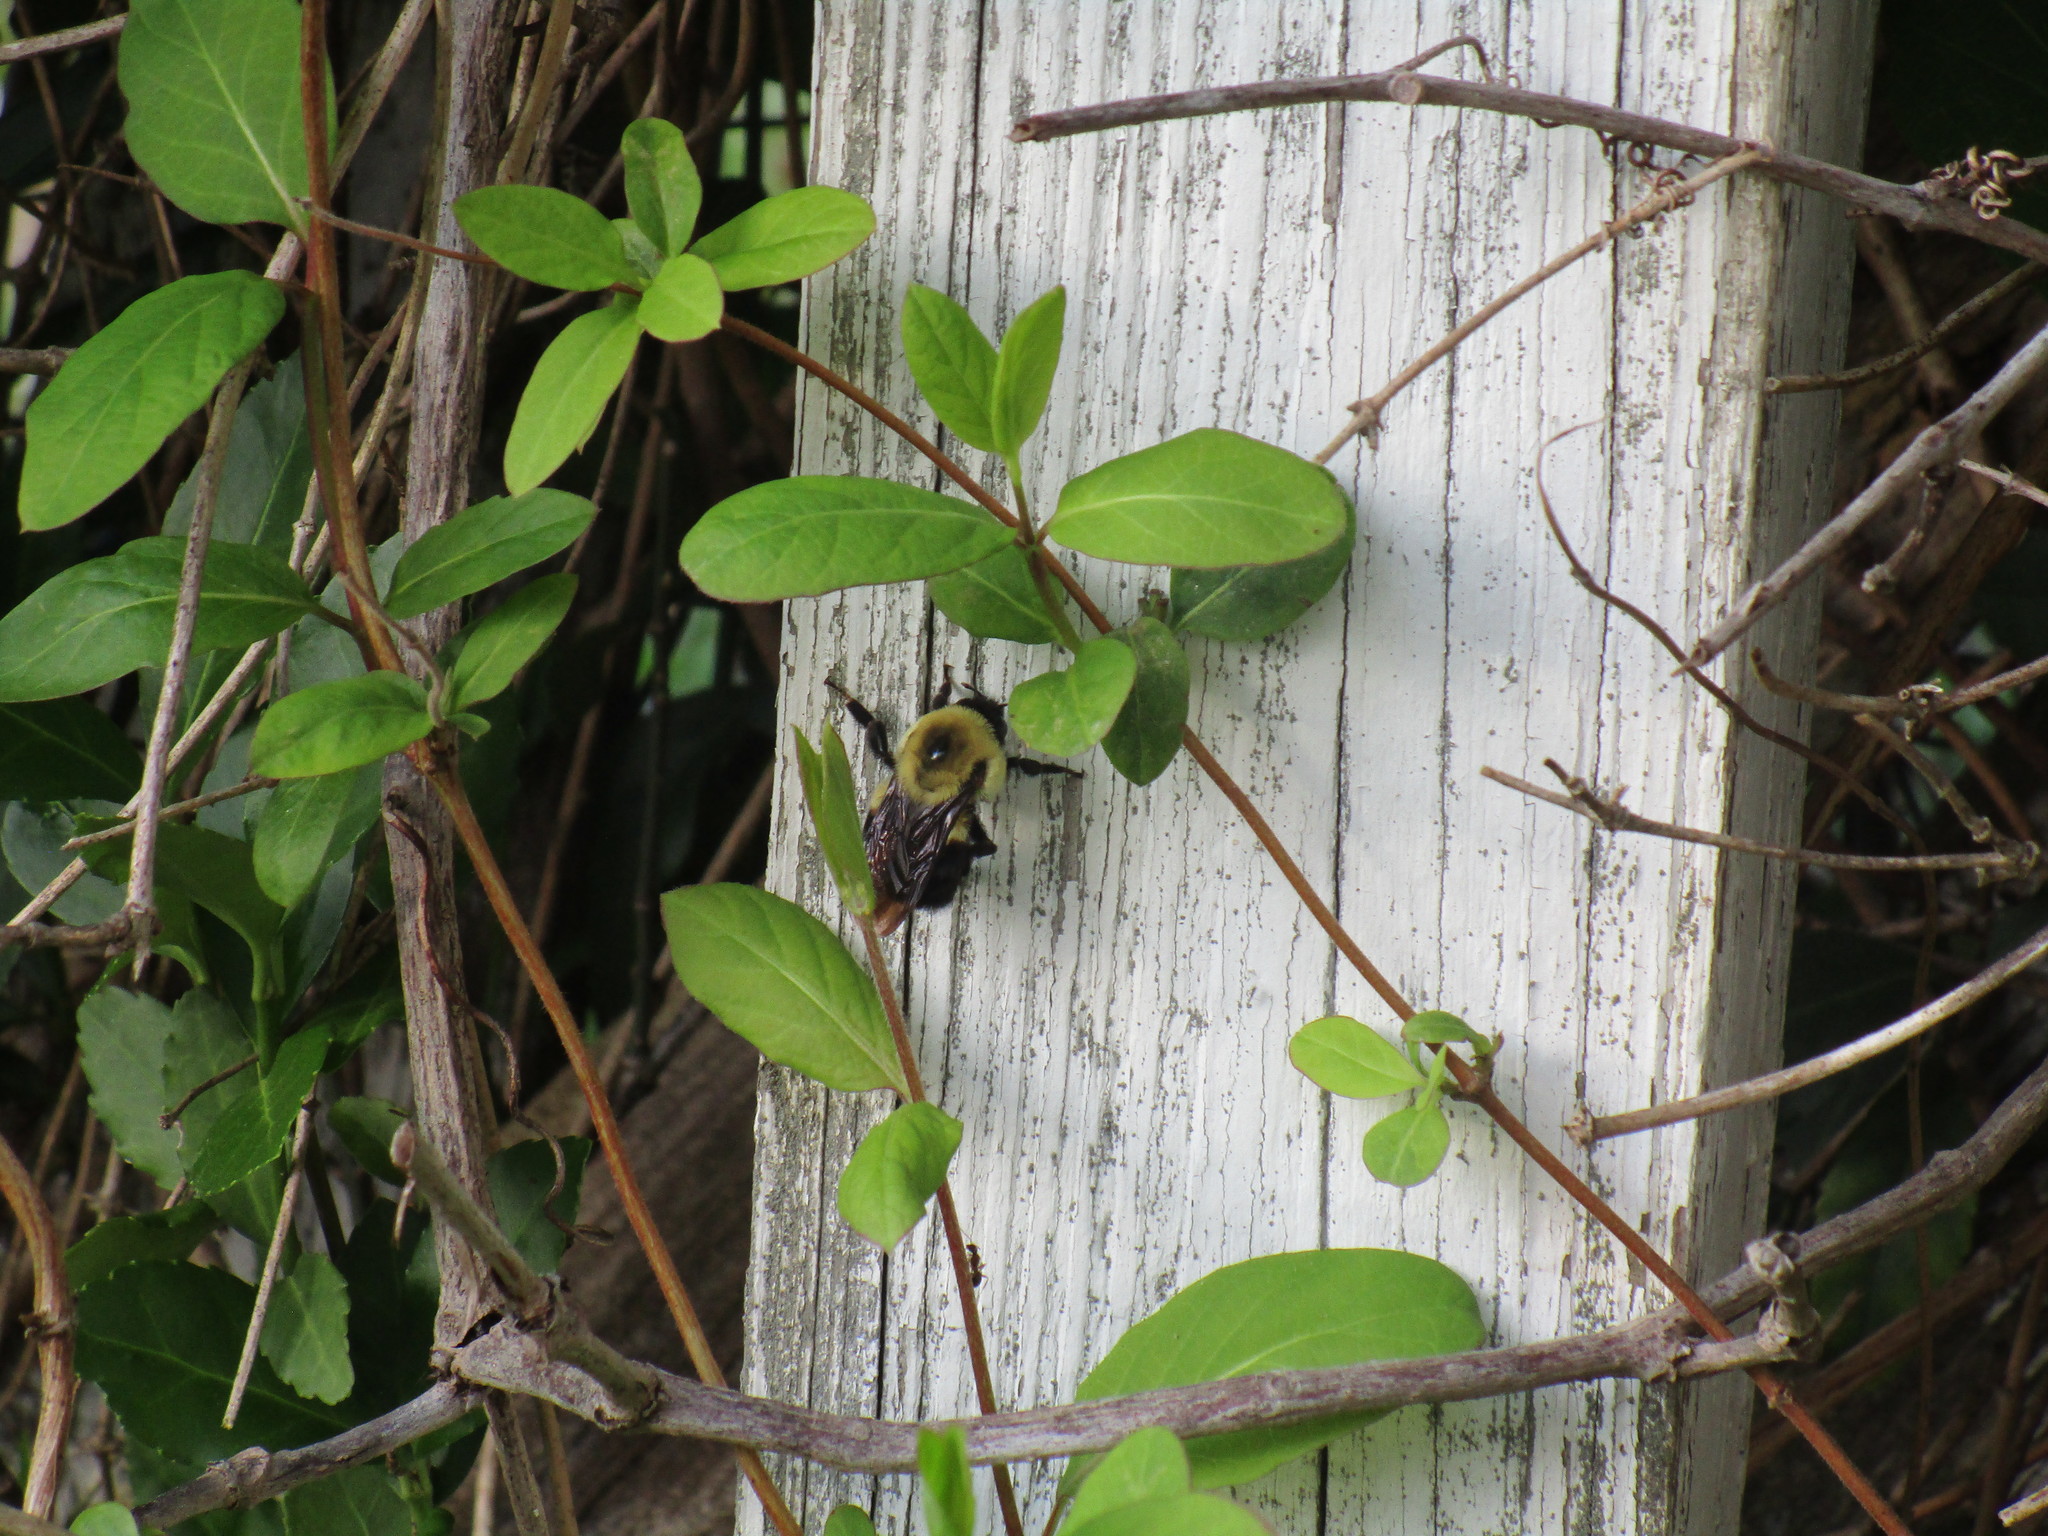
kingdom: Animalia
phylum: Arthropoda
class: Insecta
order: Hymenoptera
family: Apidae
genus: Bombus
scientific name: Bombus griseocollis
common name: Brown-belted bumble bee
